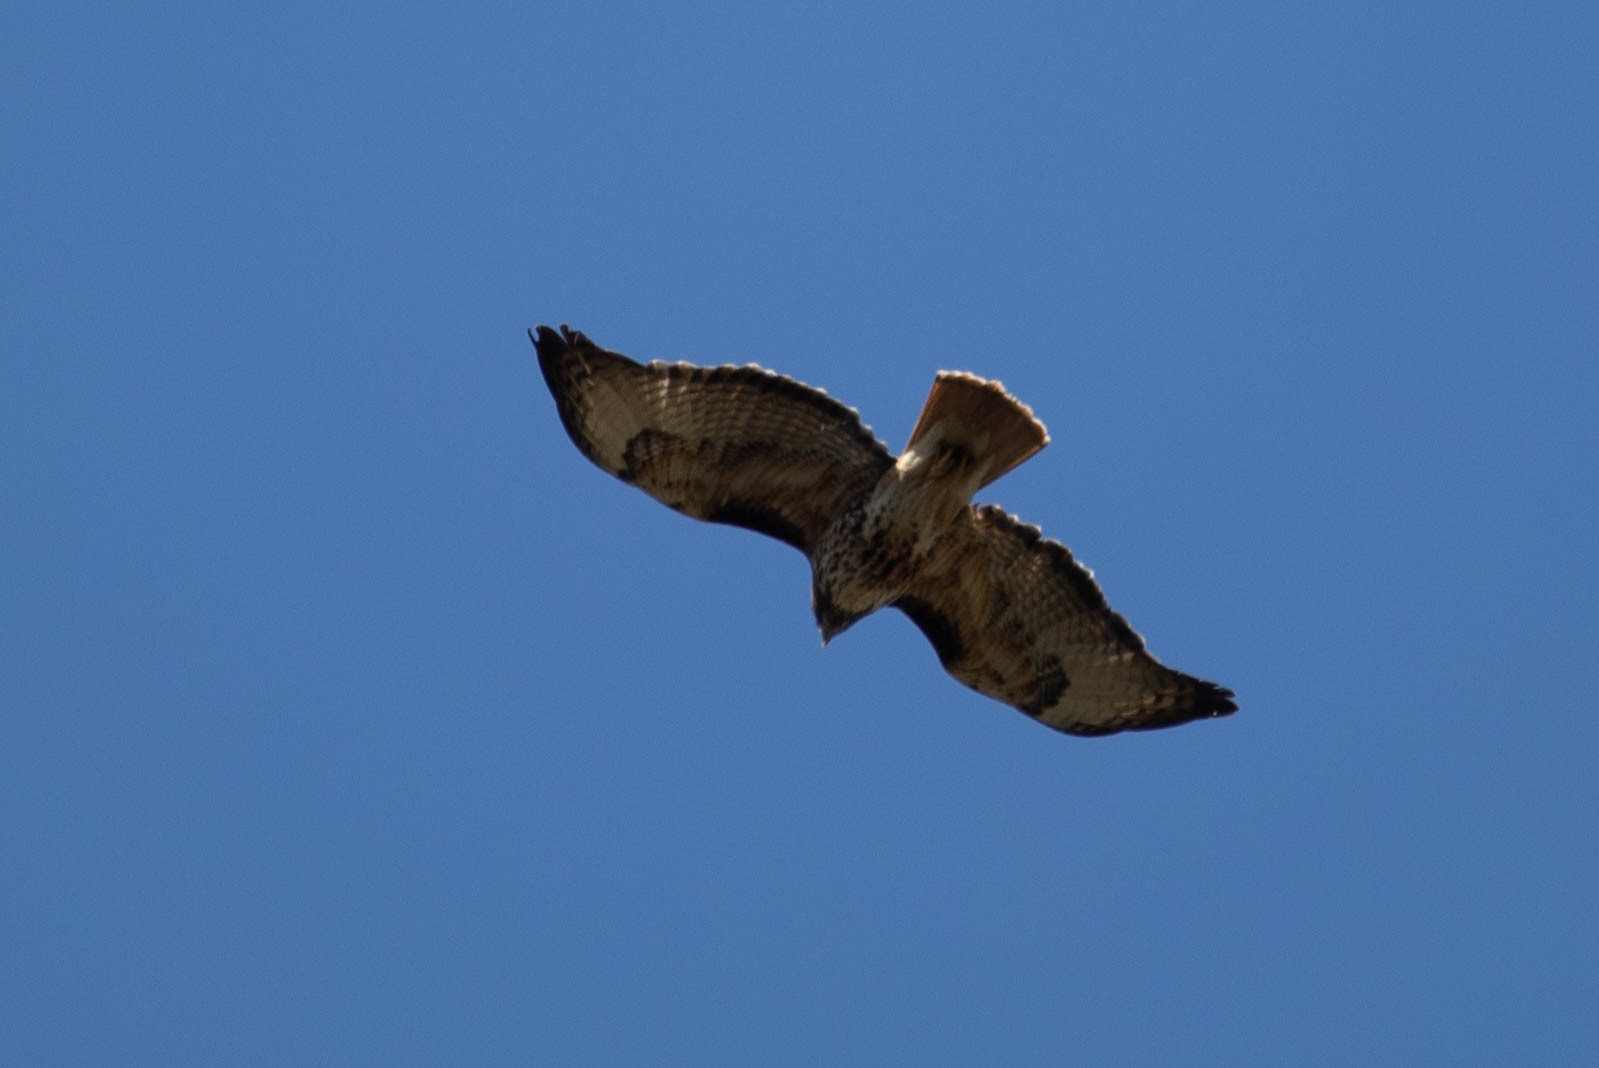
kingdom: Animalia
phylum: Chordata
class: Aves
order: Accipitriformes
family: Accipitridae
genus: Buteo
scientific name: Buteo jamaicensis
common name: Red-tailed hawk
